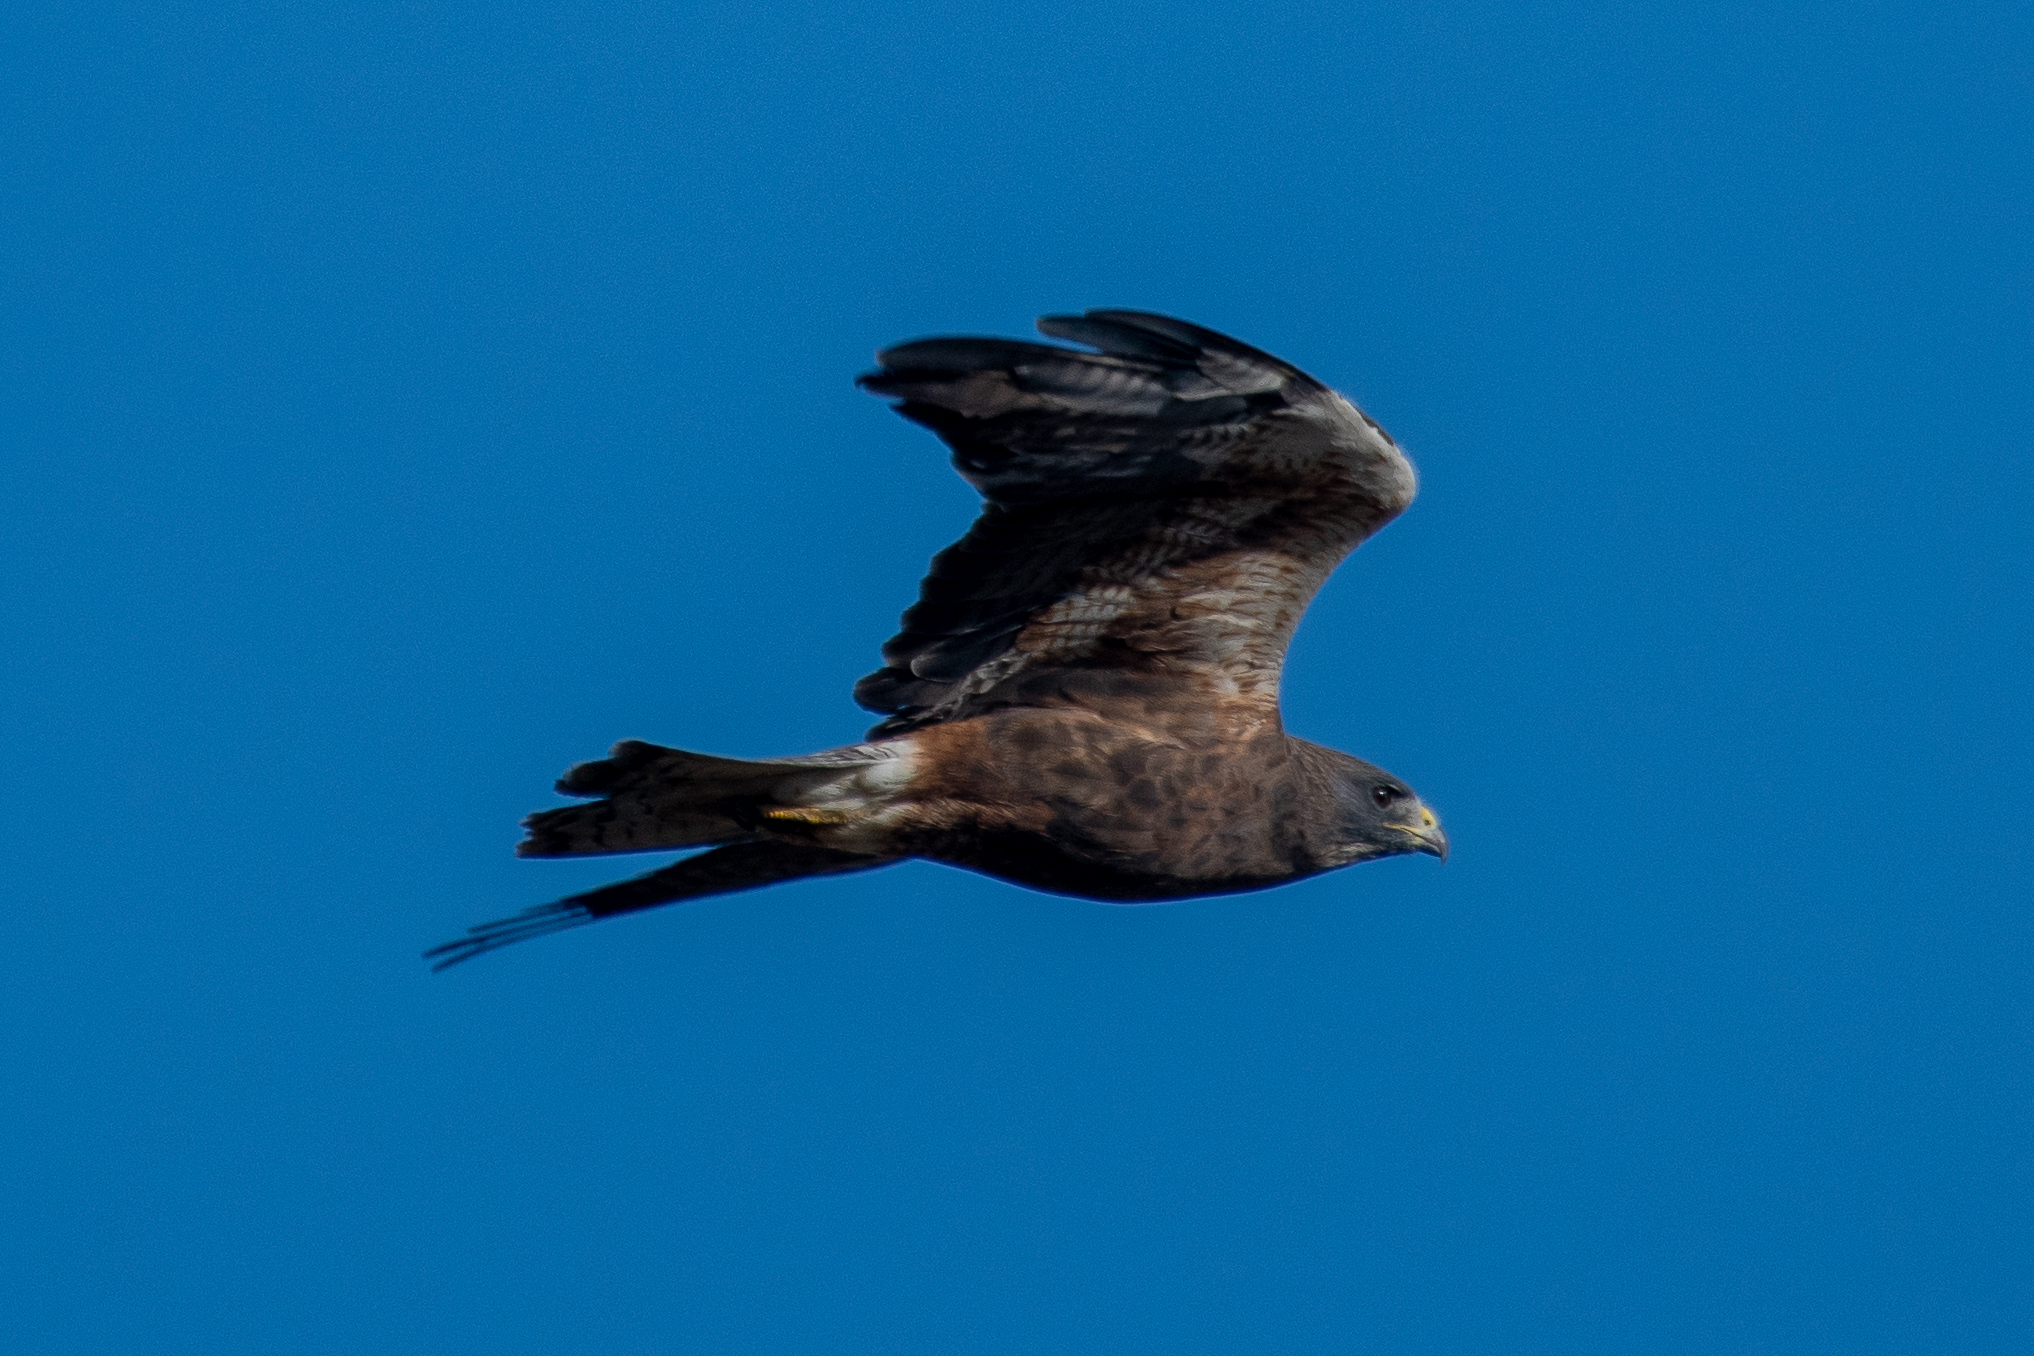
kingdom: Animalia
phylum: Chordata
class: Aves
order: Accipitriformes
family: Accipitridae
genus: Buteo
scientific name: Buteo swainsoni
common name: Swainson's hawk
